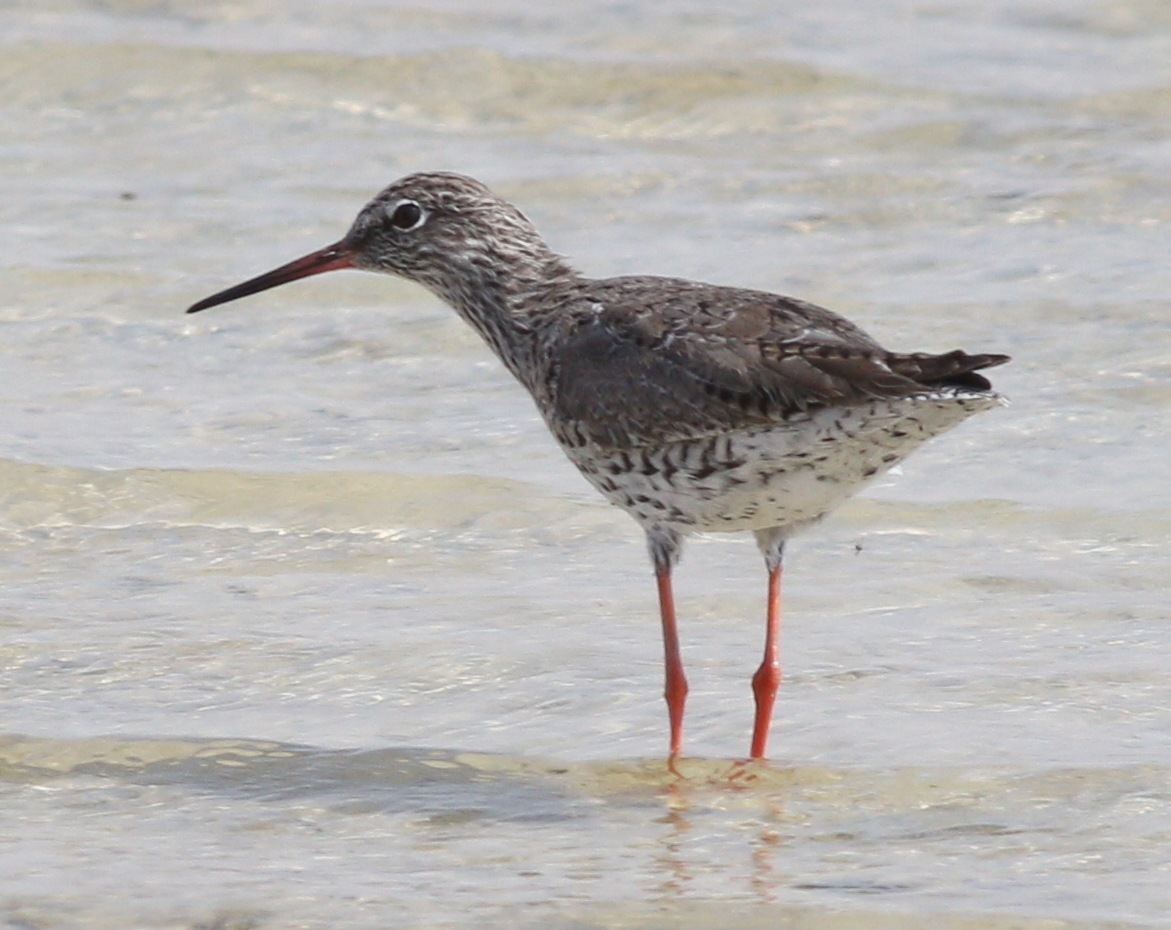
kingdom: Animalia
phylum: Chordata
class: Aves
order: Charadriiformes
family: Scolopacidae
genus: Tringa
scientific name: Tringa totanus
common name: Common redshank
